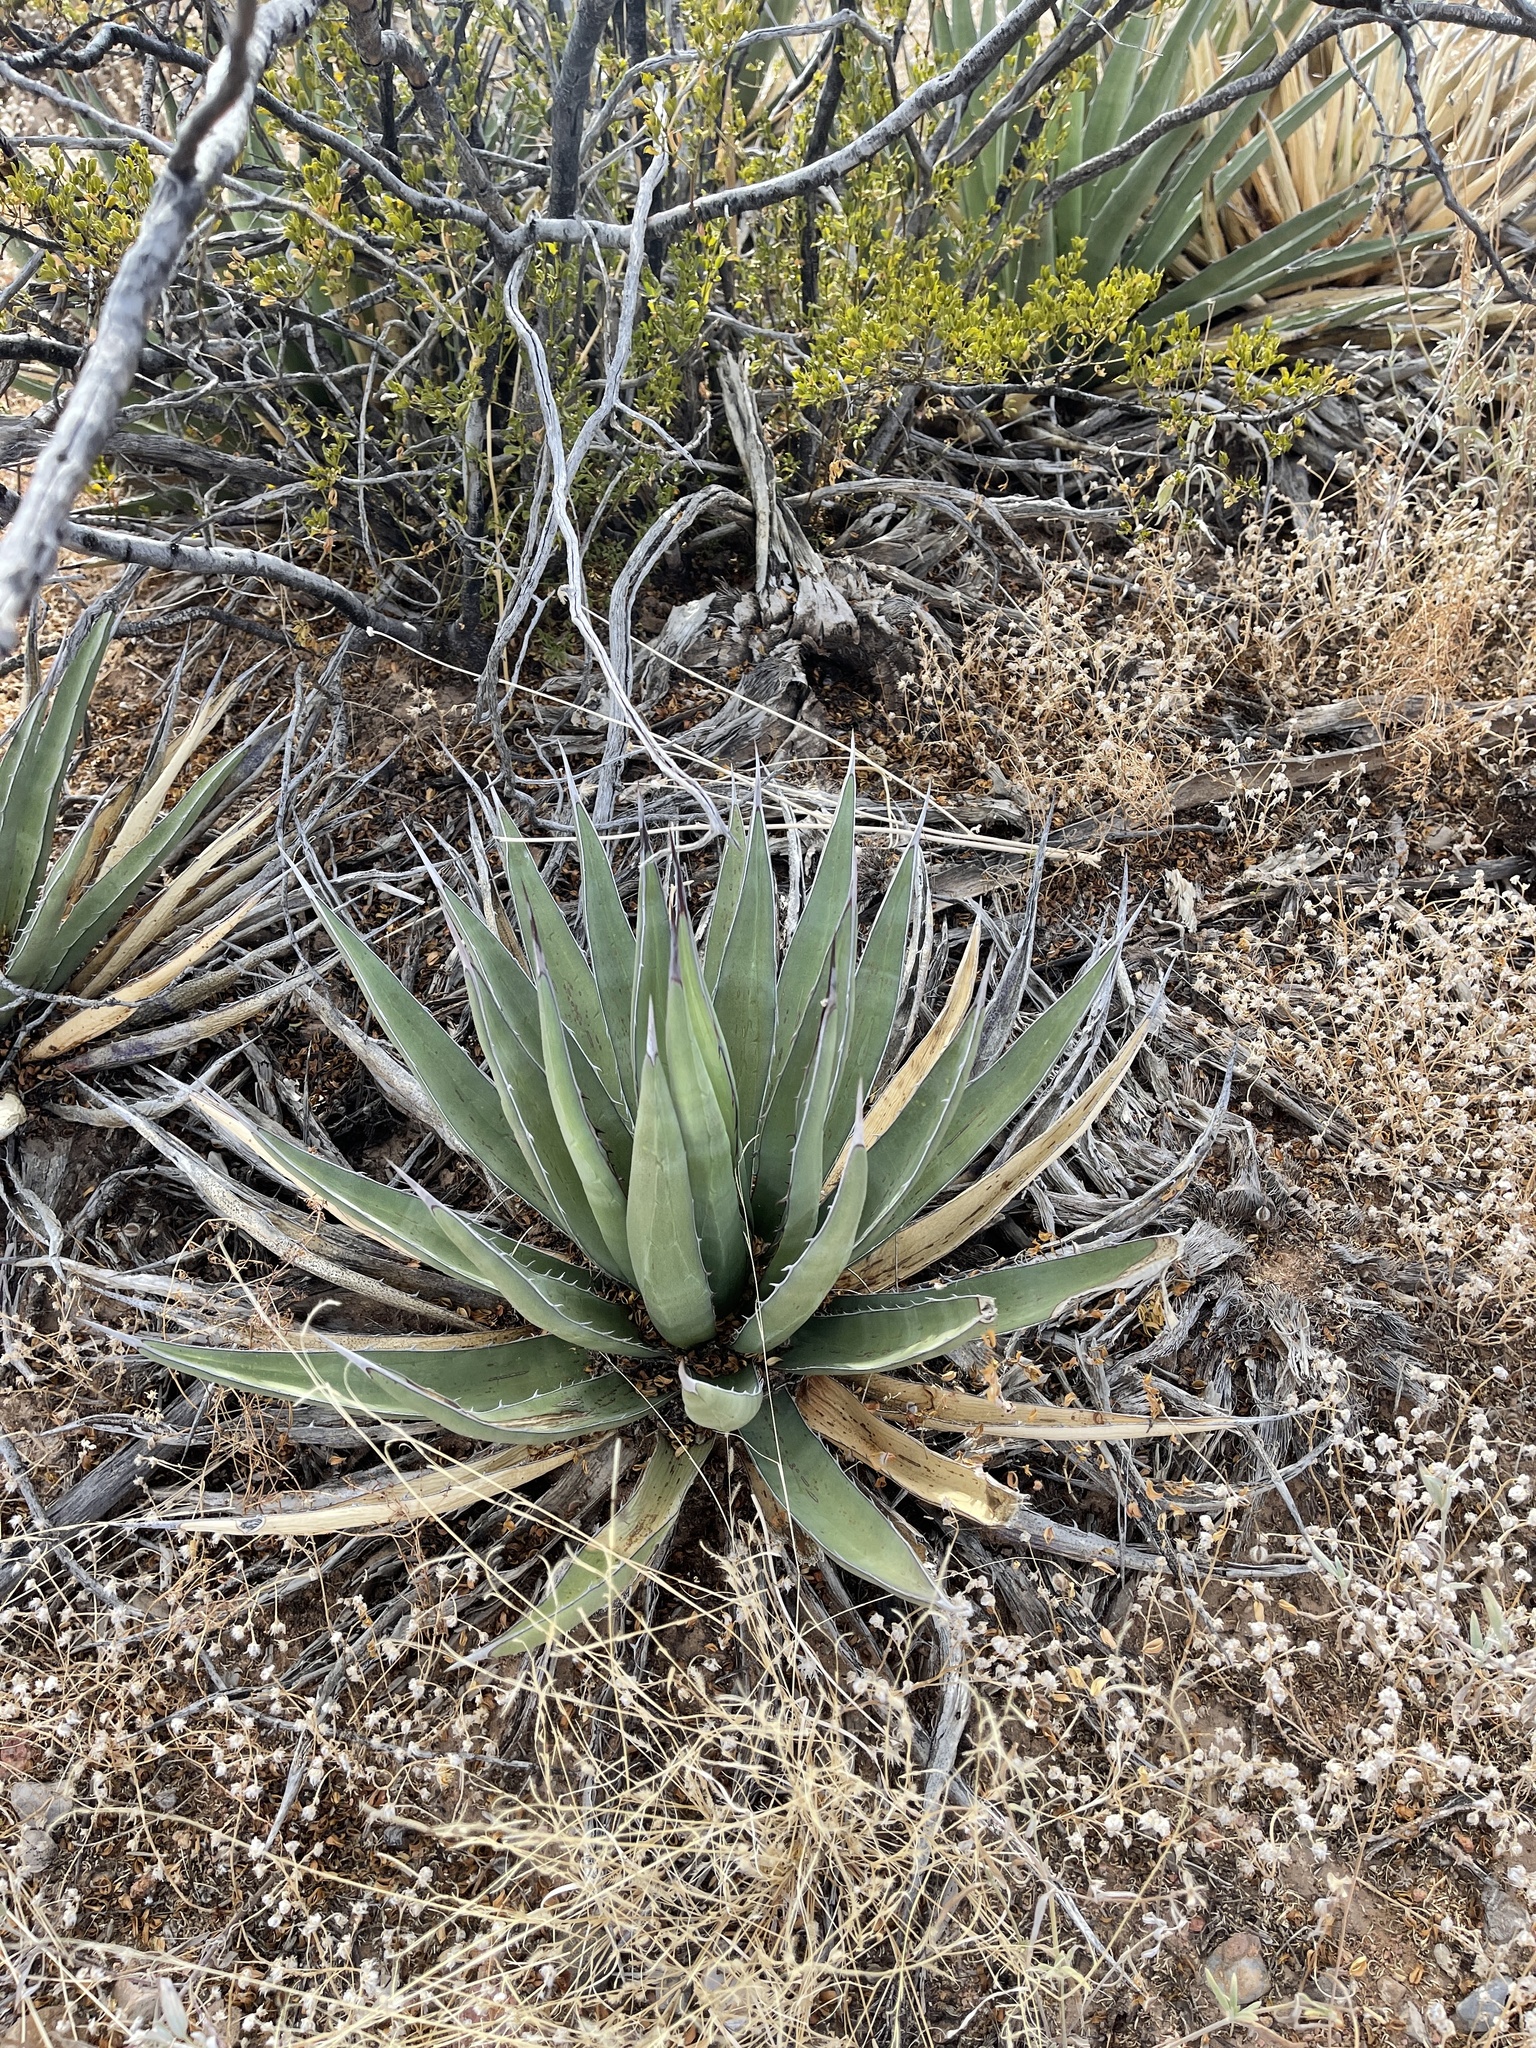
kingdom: Plantae
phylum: Tracheophyta
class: Liliopsida
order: Asparagales
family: Asparagaceae
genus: Agave
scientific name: Agave lechuguilla
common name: Lecheguilla agave
